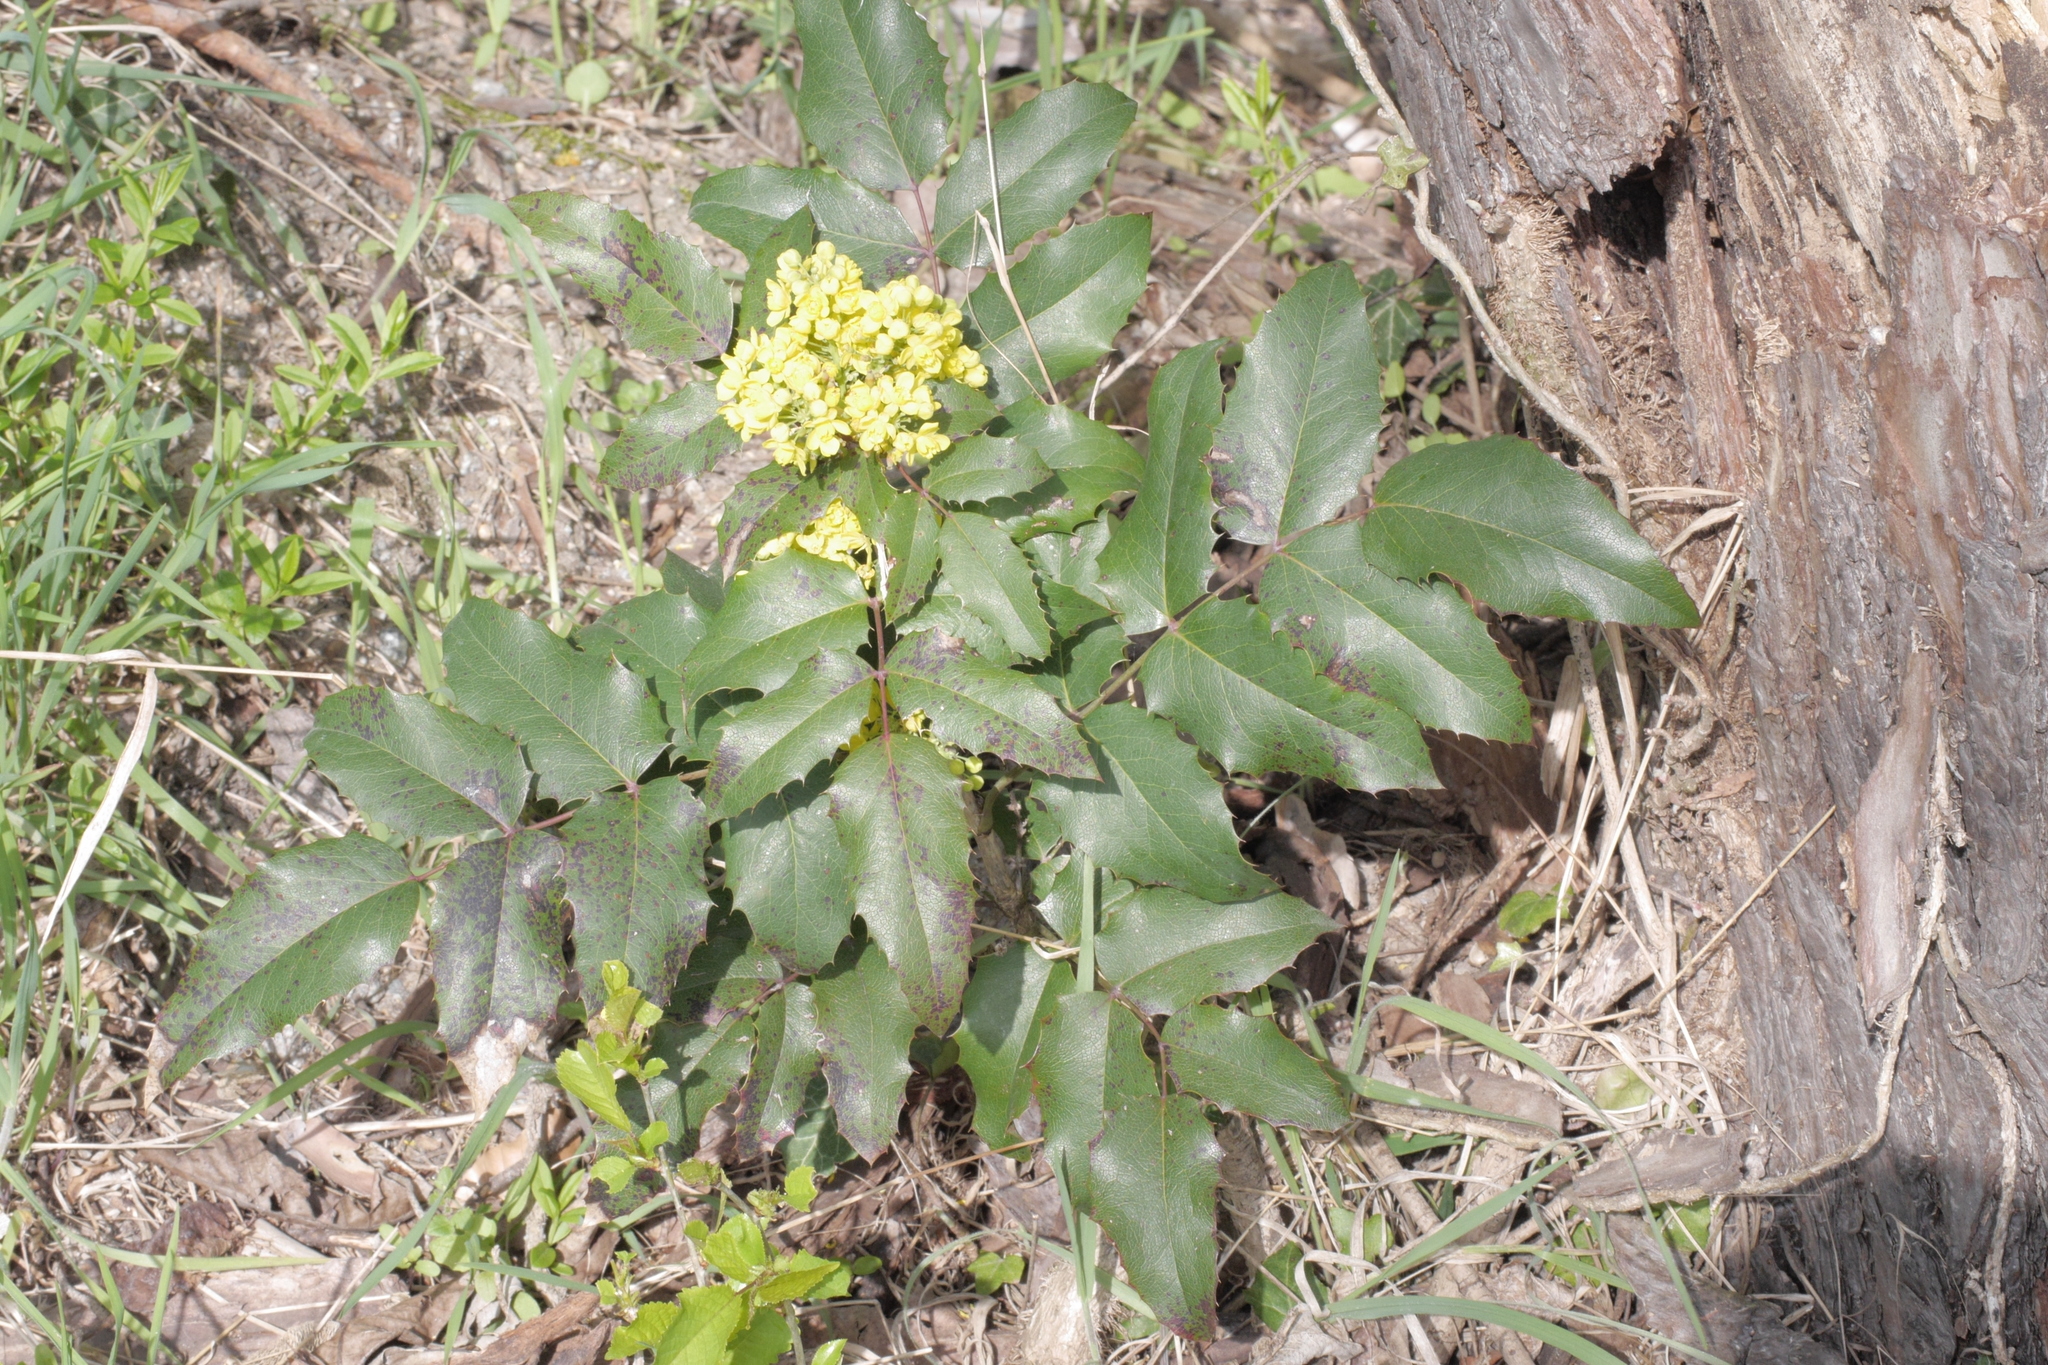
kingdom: Plantae
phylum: Tracheophyta
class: Magnoliopsida
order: Ranunculales
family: Berberidaceae
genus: Mahonia
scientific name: Mahonia aquifolium
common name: Oregon-grape
